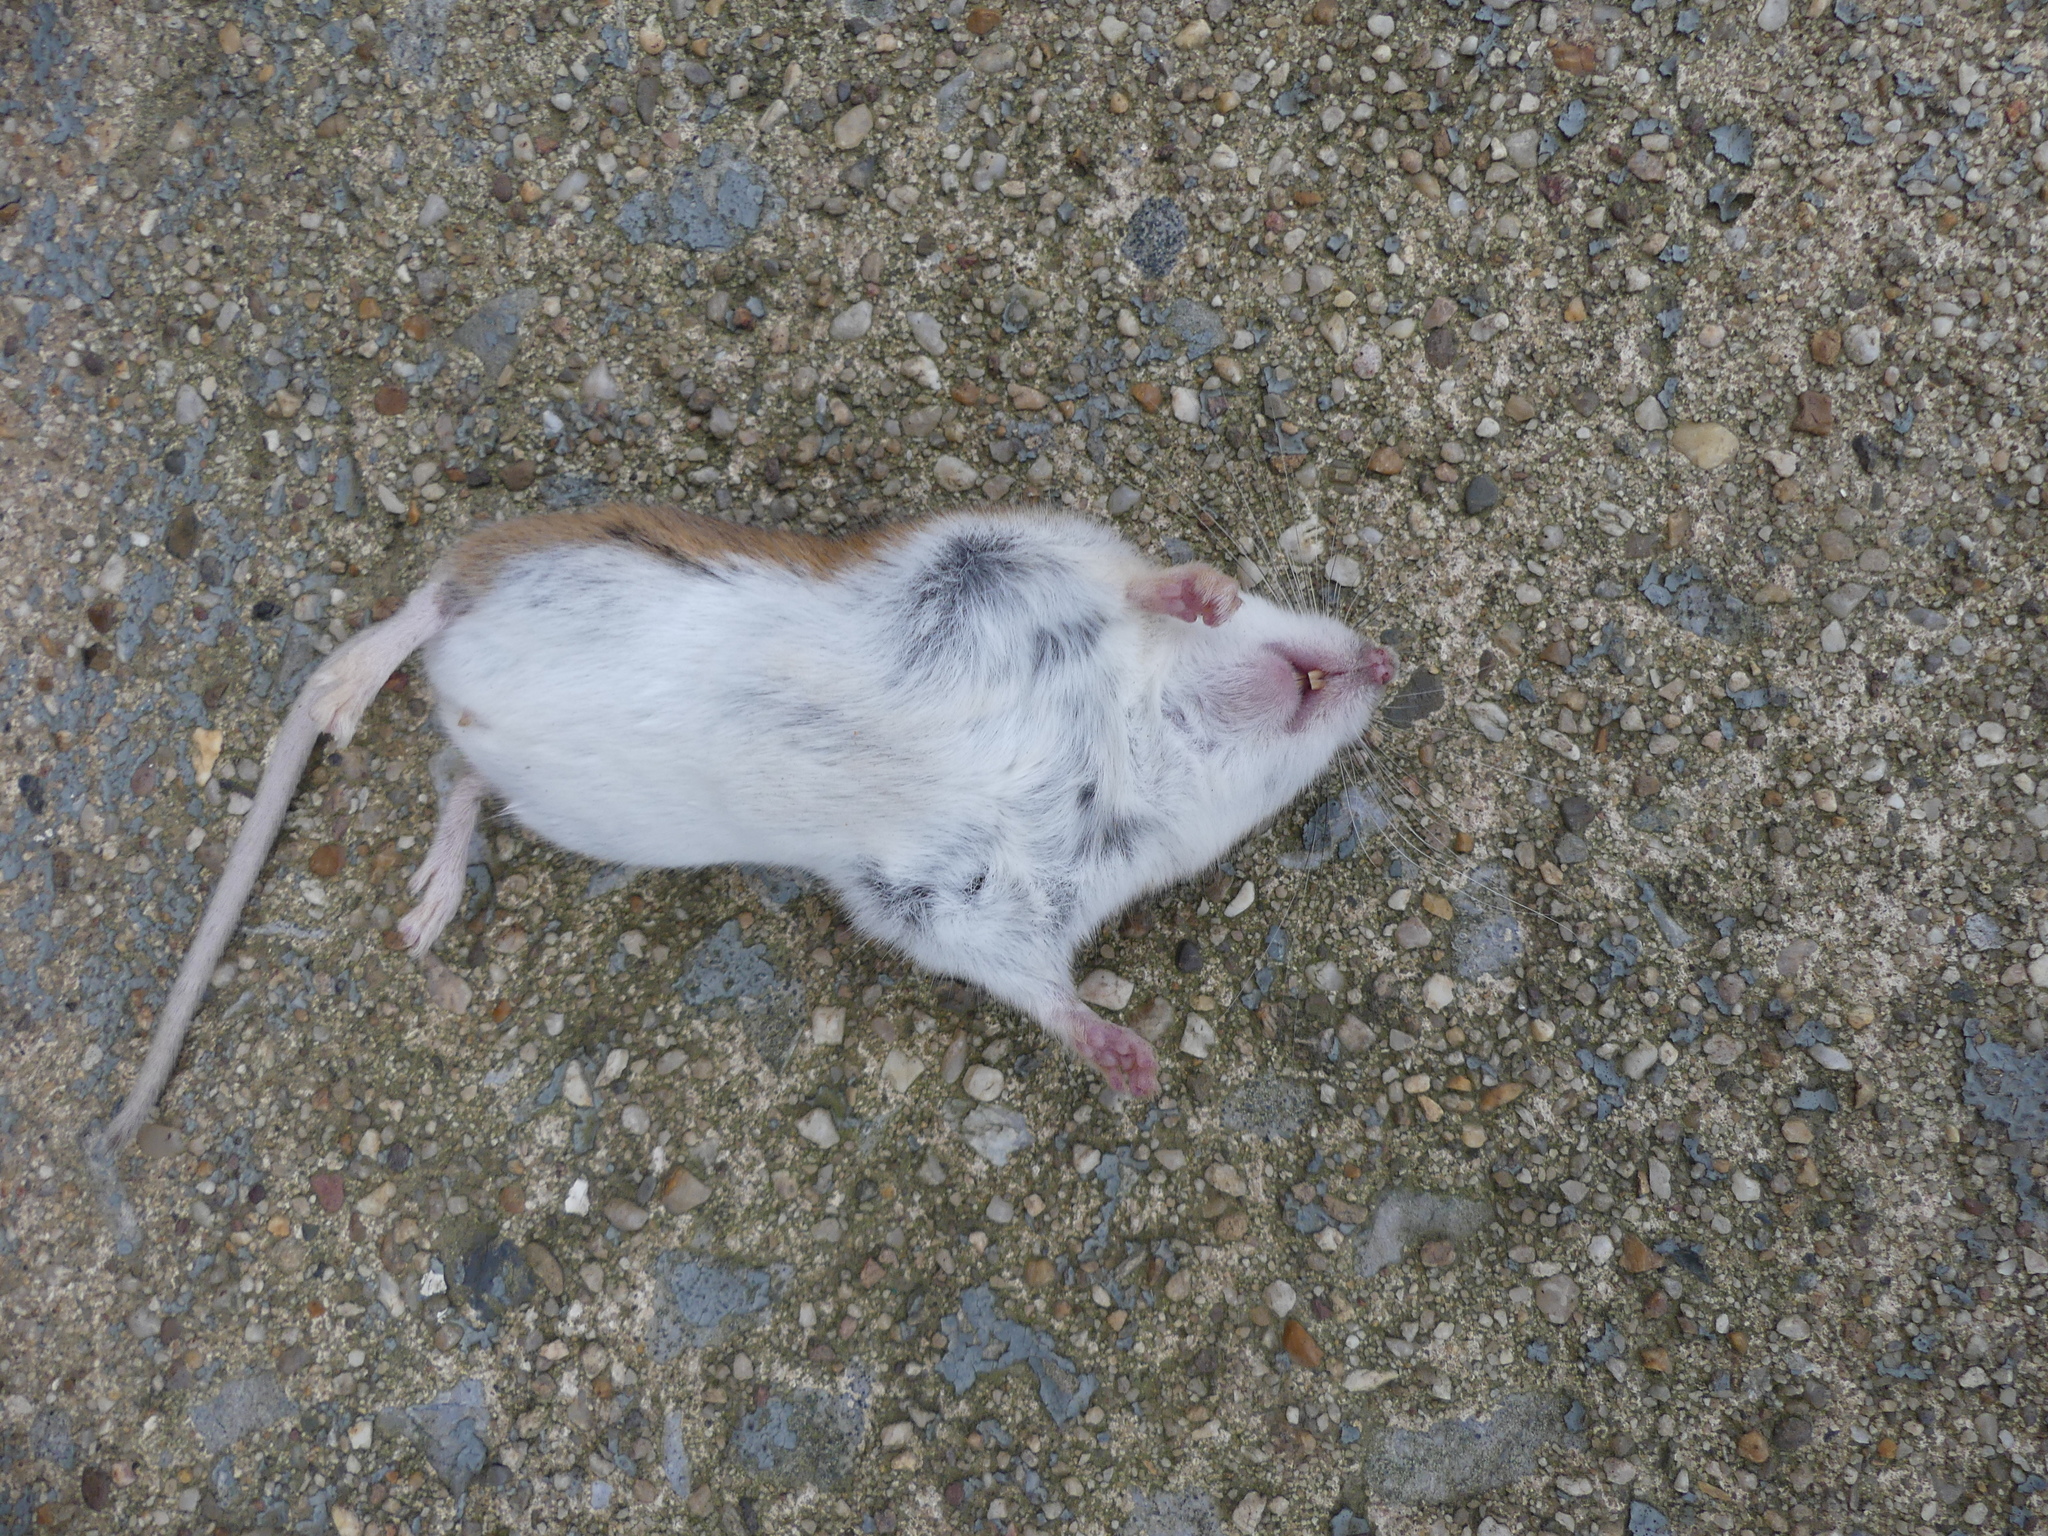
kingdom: Animalia
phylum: Chordata
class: Mammalia
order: Rodentia
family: Cricetidae
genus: Peromyscus
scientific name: Peromyscus maniculatus
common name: Deer mouse
